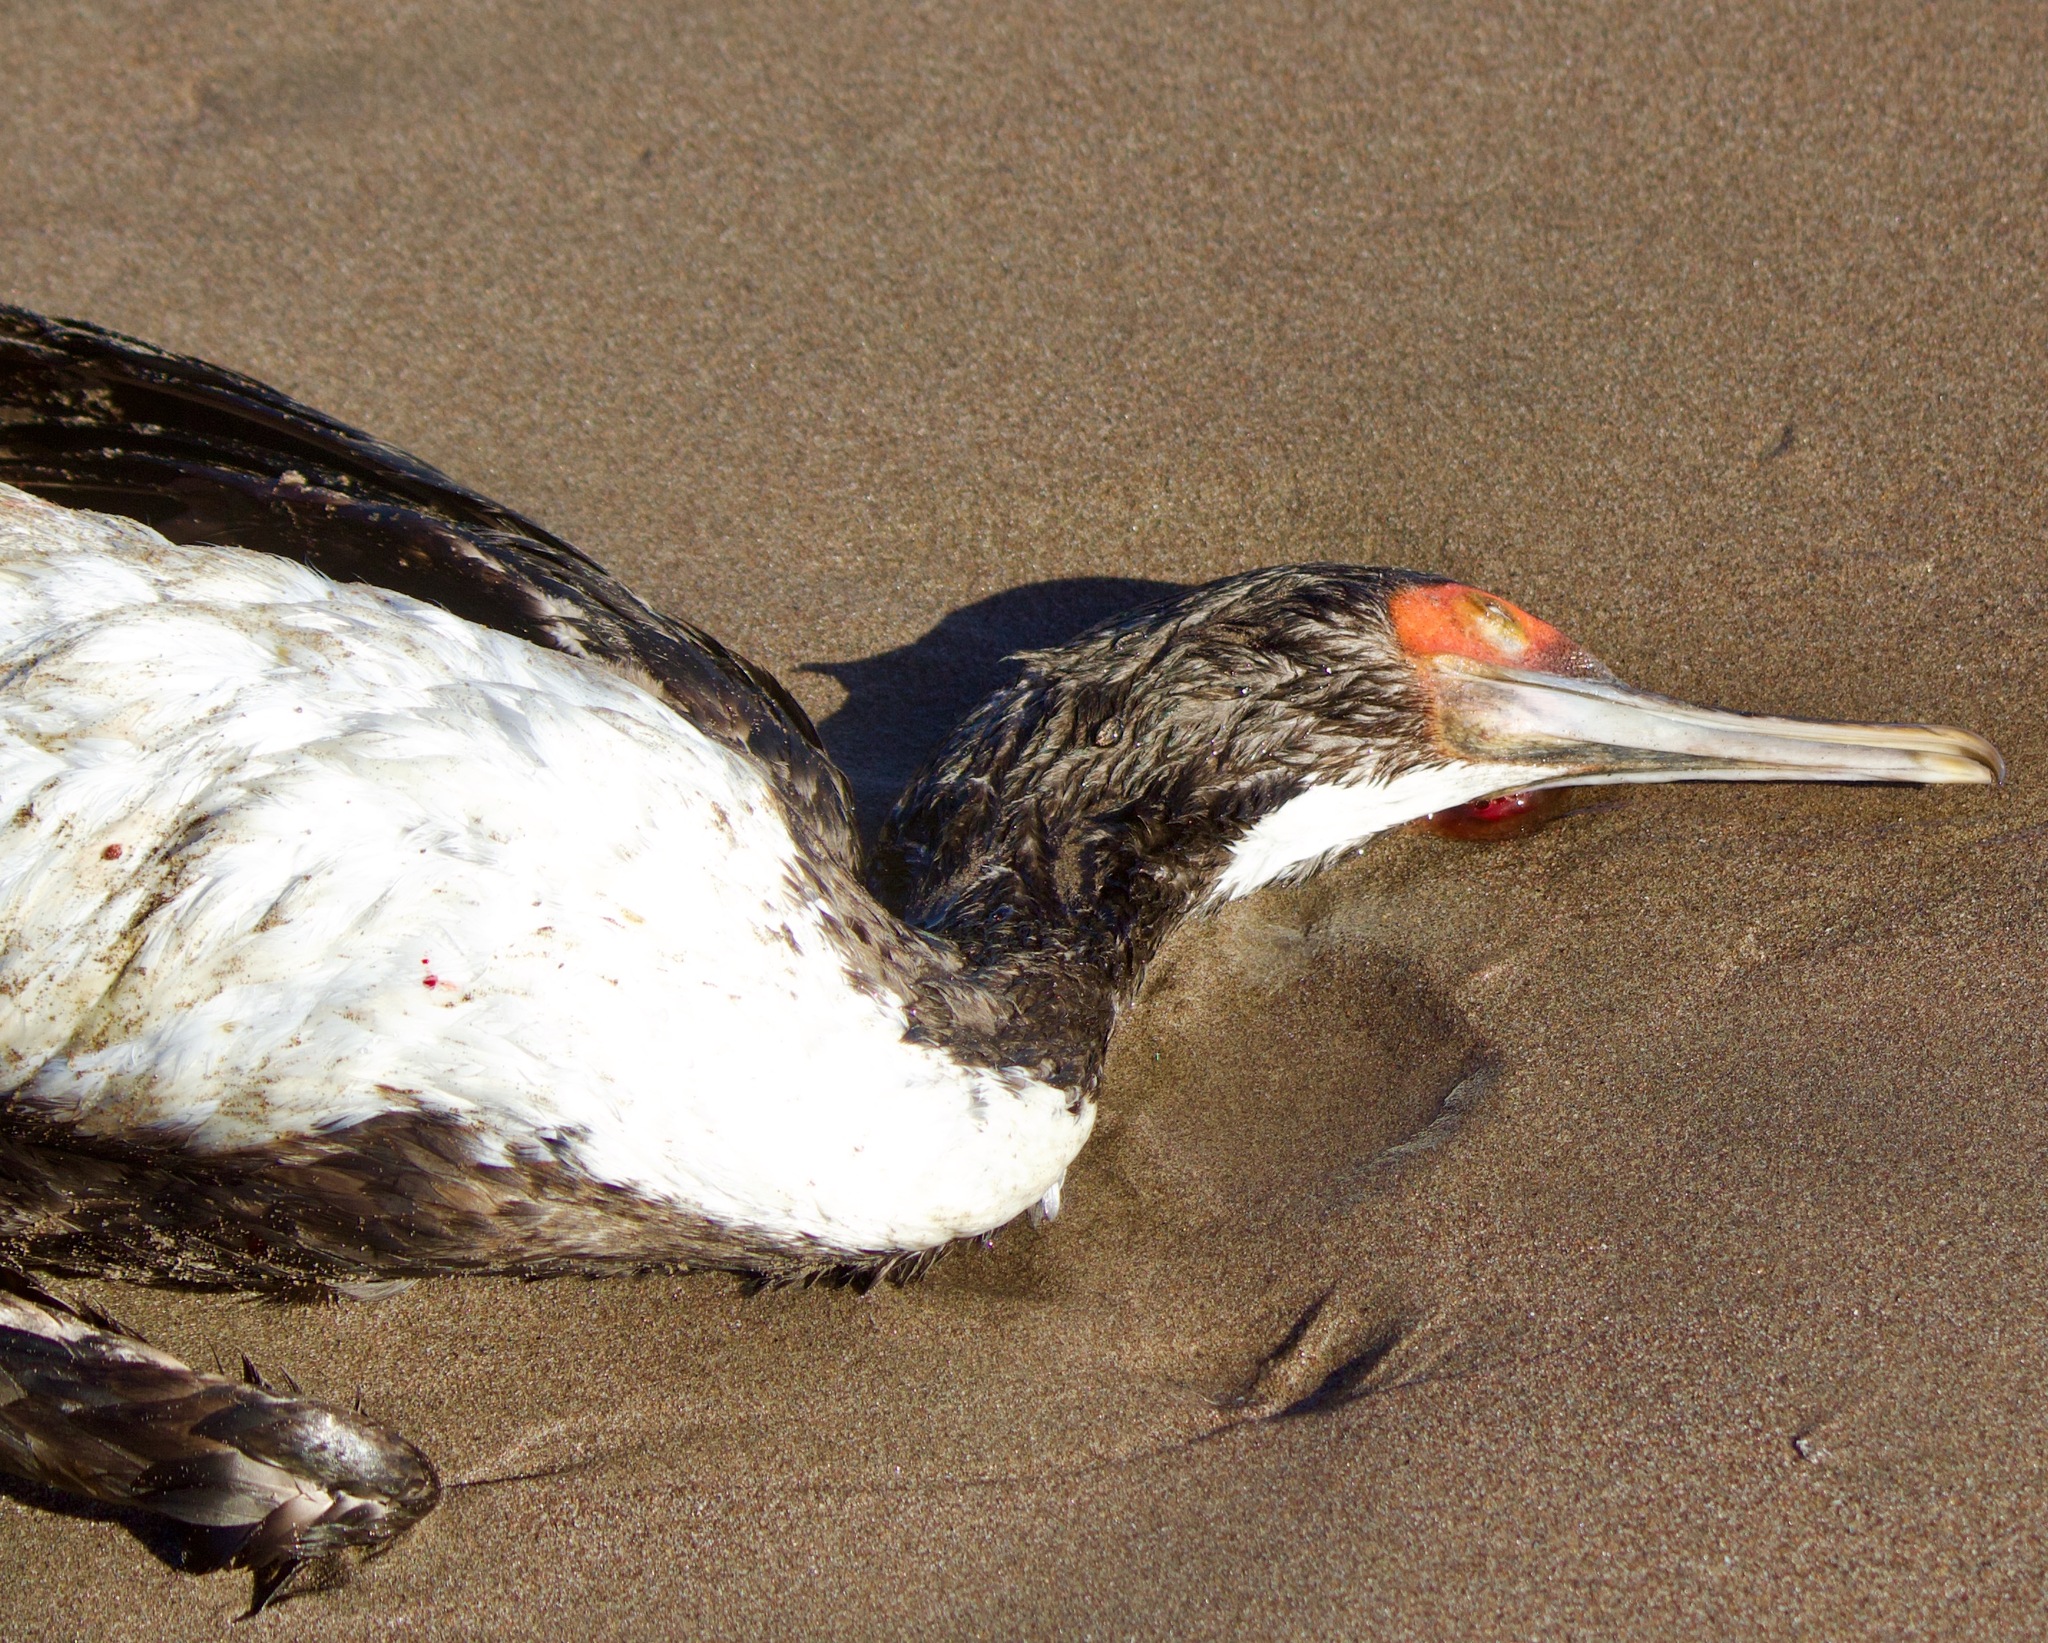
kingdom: Animalia
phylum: Chordata
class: Aves
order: Suliformes
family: Phalacrocoracidae
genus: Leucocarbo
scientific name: Leucocarbo bougainvillii
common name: Guanay cormorant
